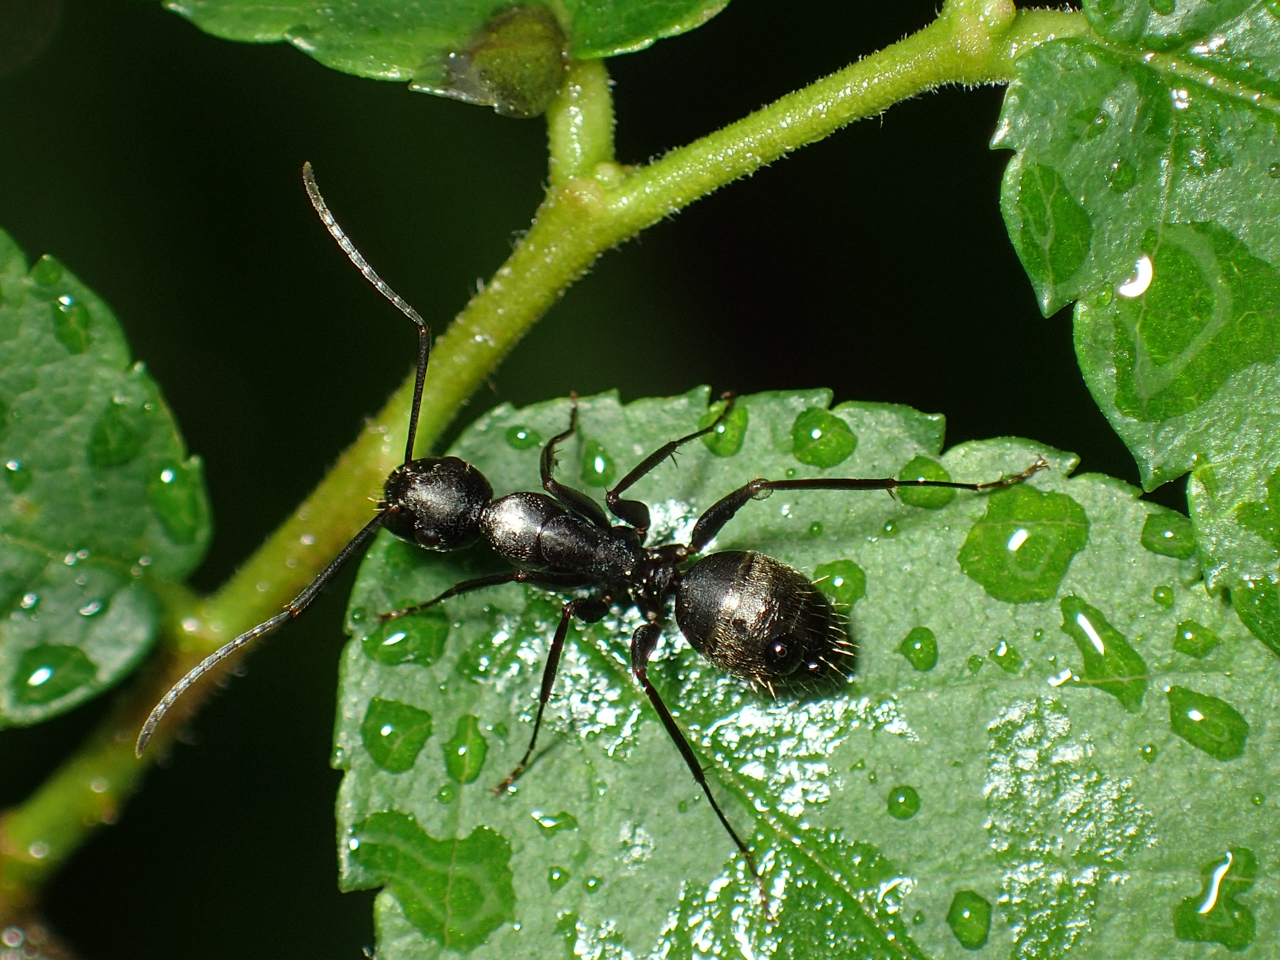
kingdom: Animalia
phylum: Arthropoda
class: Insecta
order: Hymenoptera
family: Formicidae
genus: Camponotus
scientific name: Camponotus pennsylvanicus
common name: Black carpenter ant
